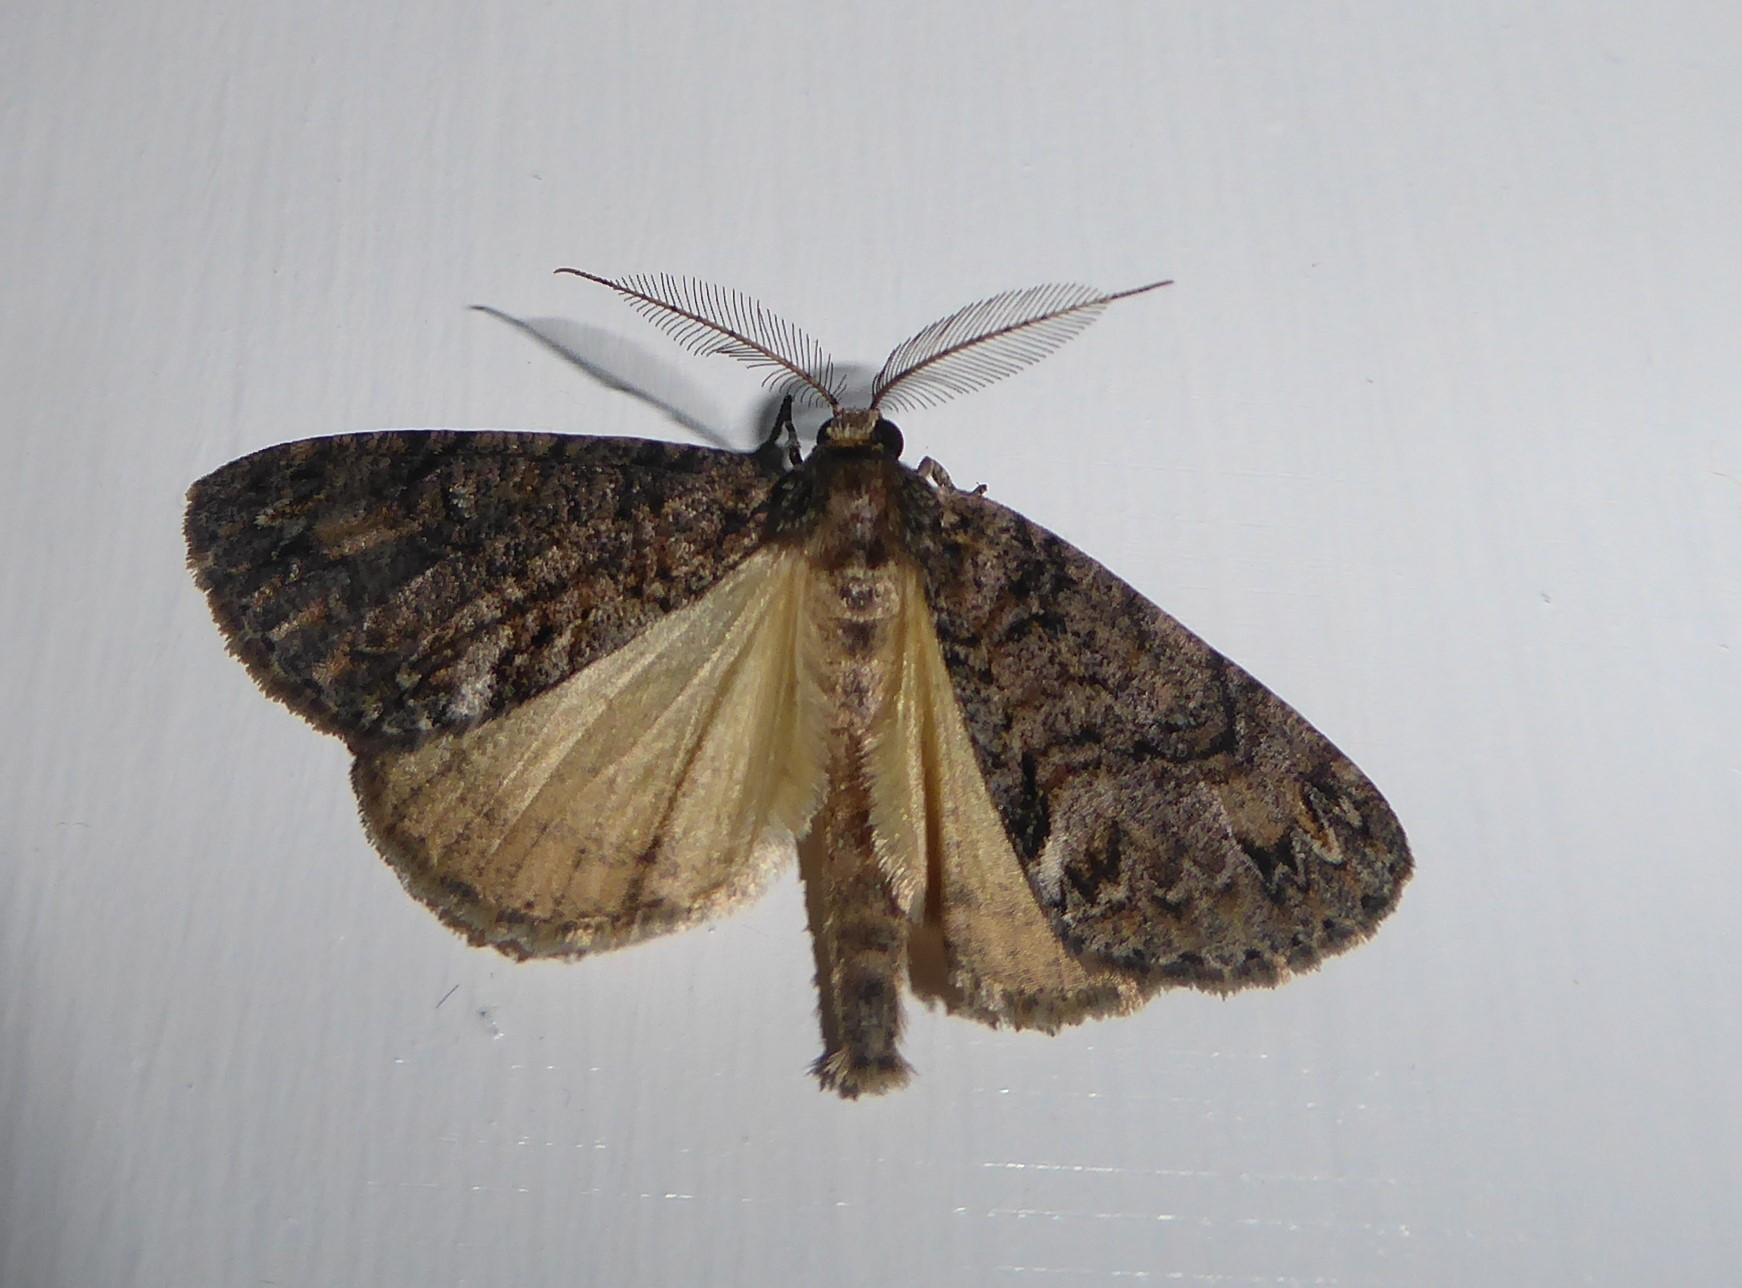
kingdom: Animalia
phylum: Arthropoda
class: Insecta
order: Lepidoptera
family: Geometridae
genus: Pseudocoremia
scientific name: Pseudocoremia suavis
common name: Common forest looper
